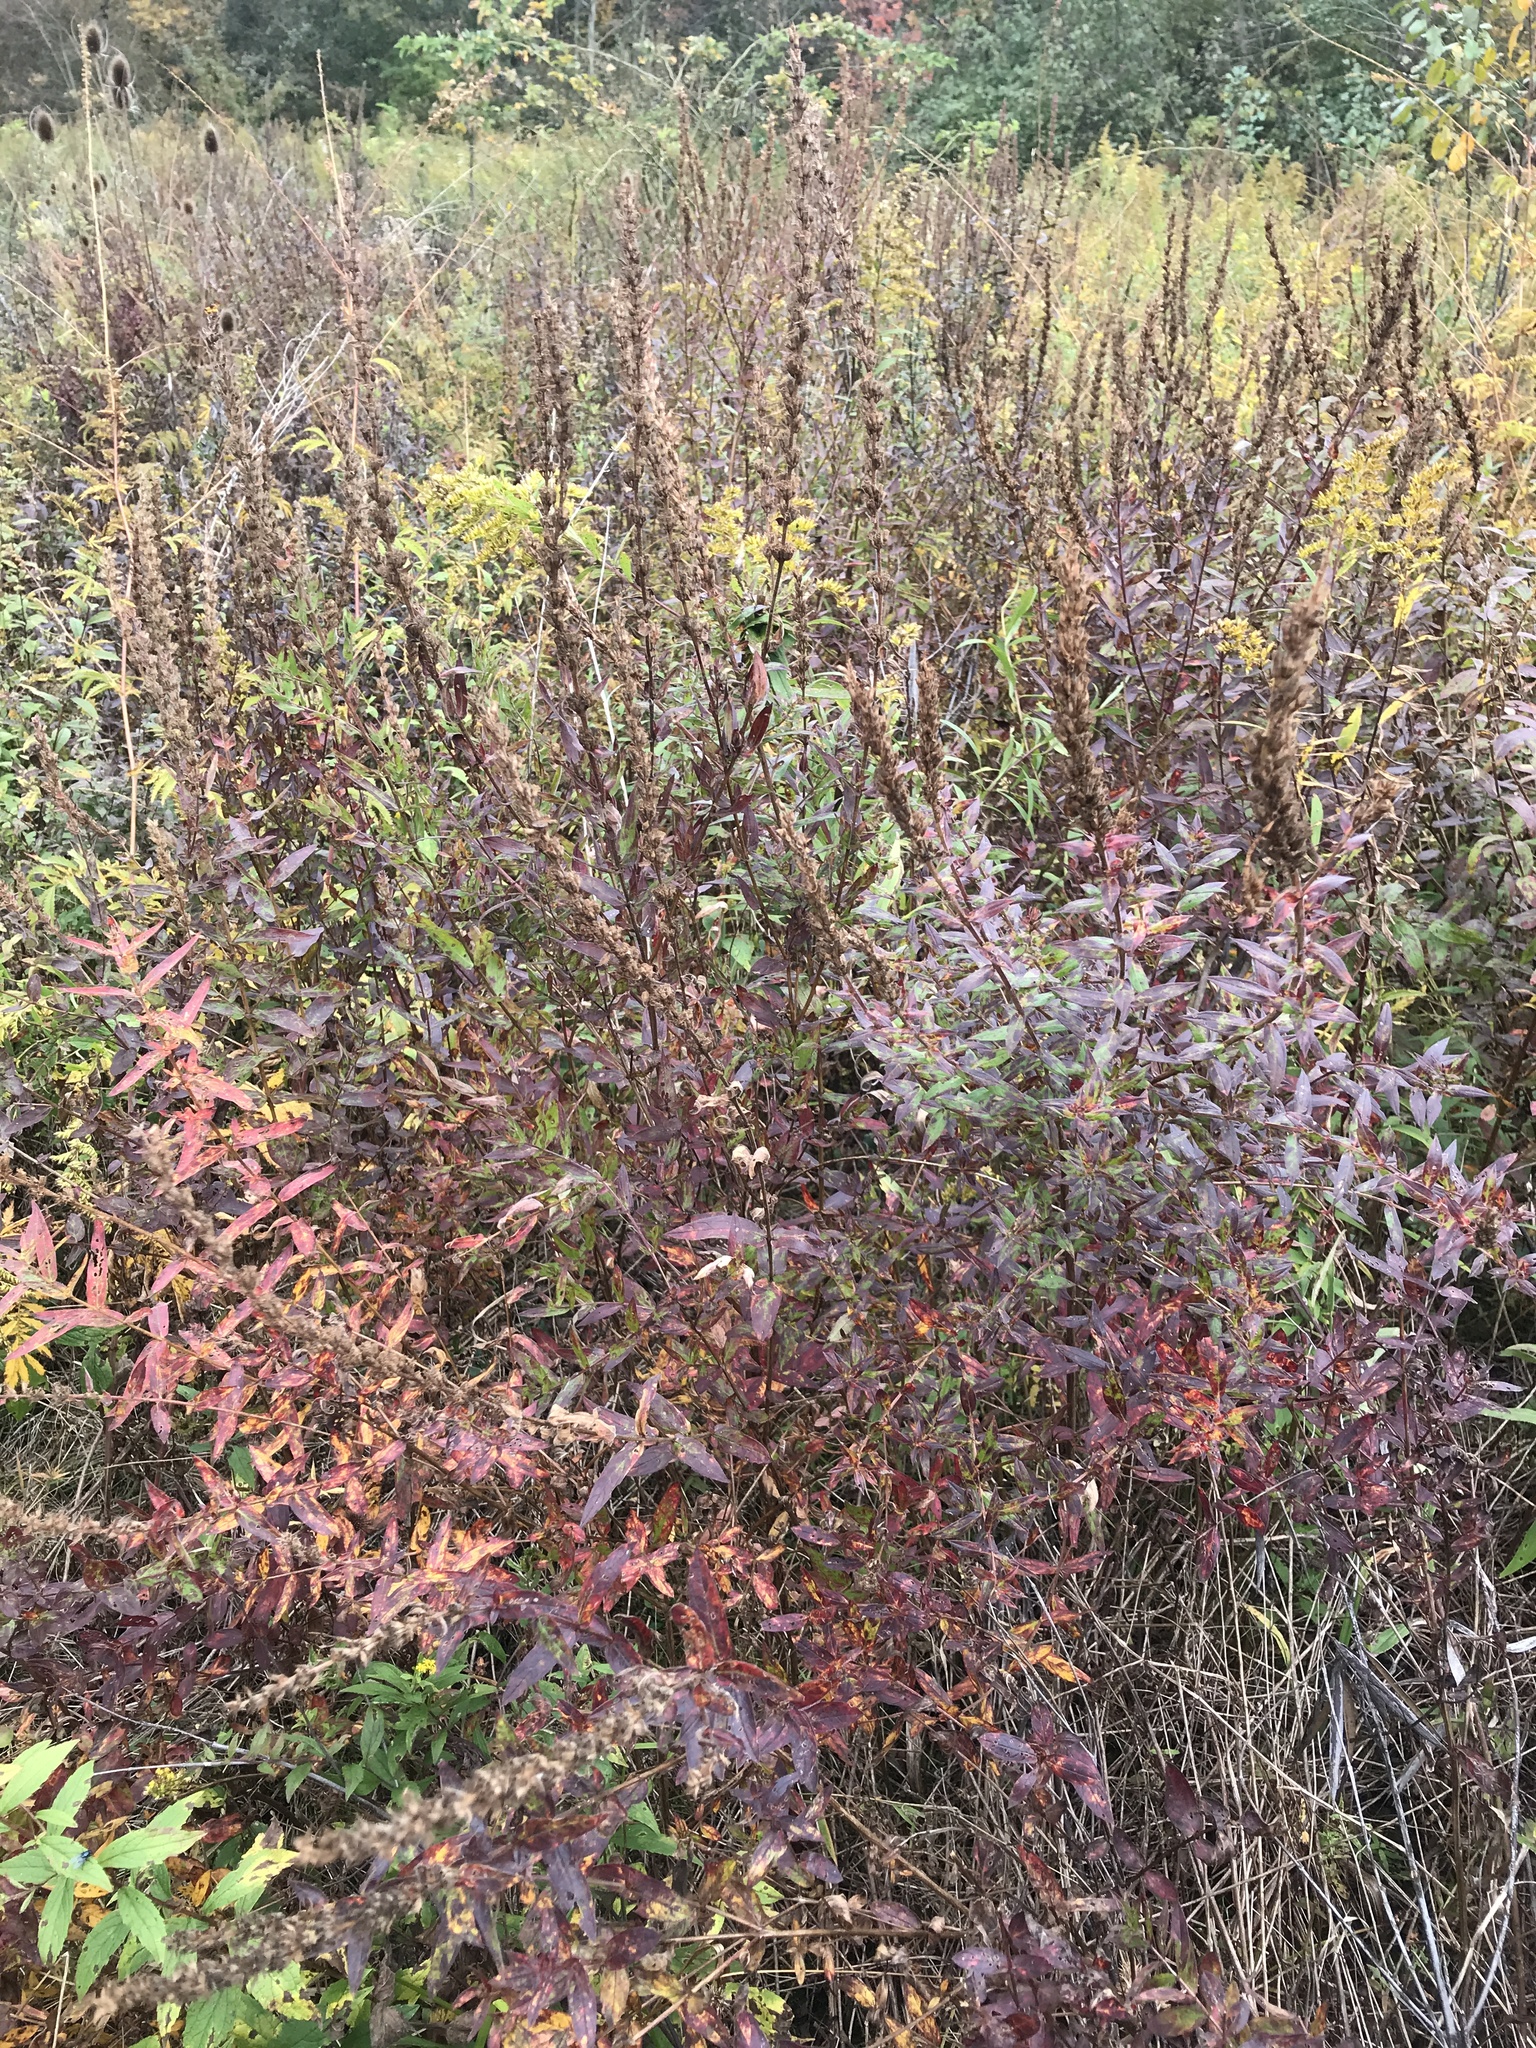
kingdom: Plantae
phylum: Tracheophyta
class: Magnoliopsida
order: Myrtales
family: Lythraceae
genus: Lythrum
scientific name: Lythrum salicaria
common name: Purple loosestrife
